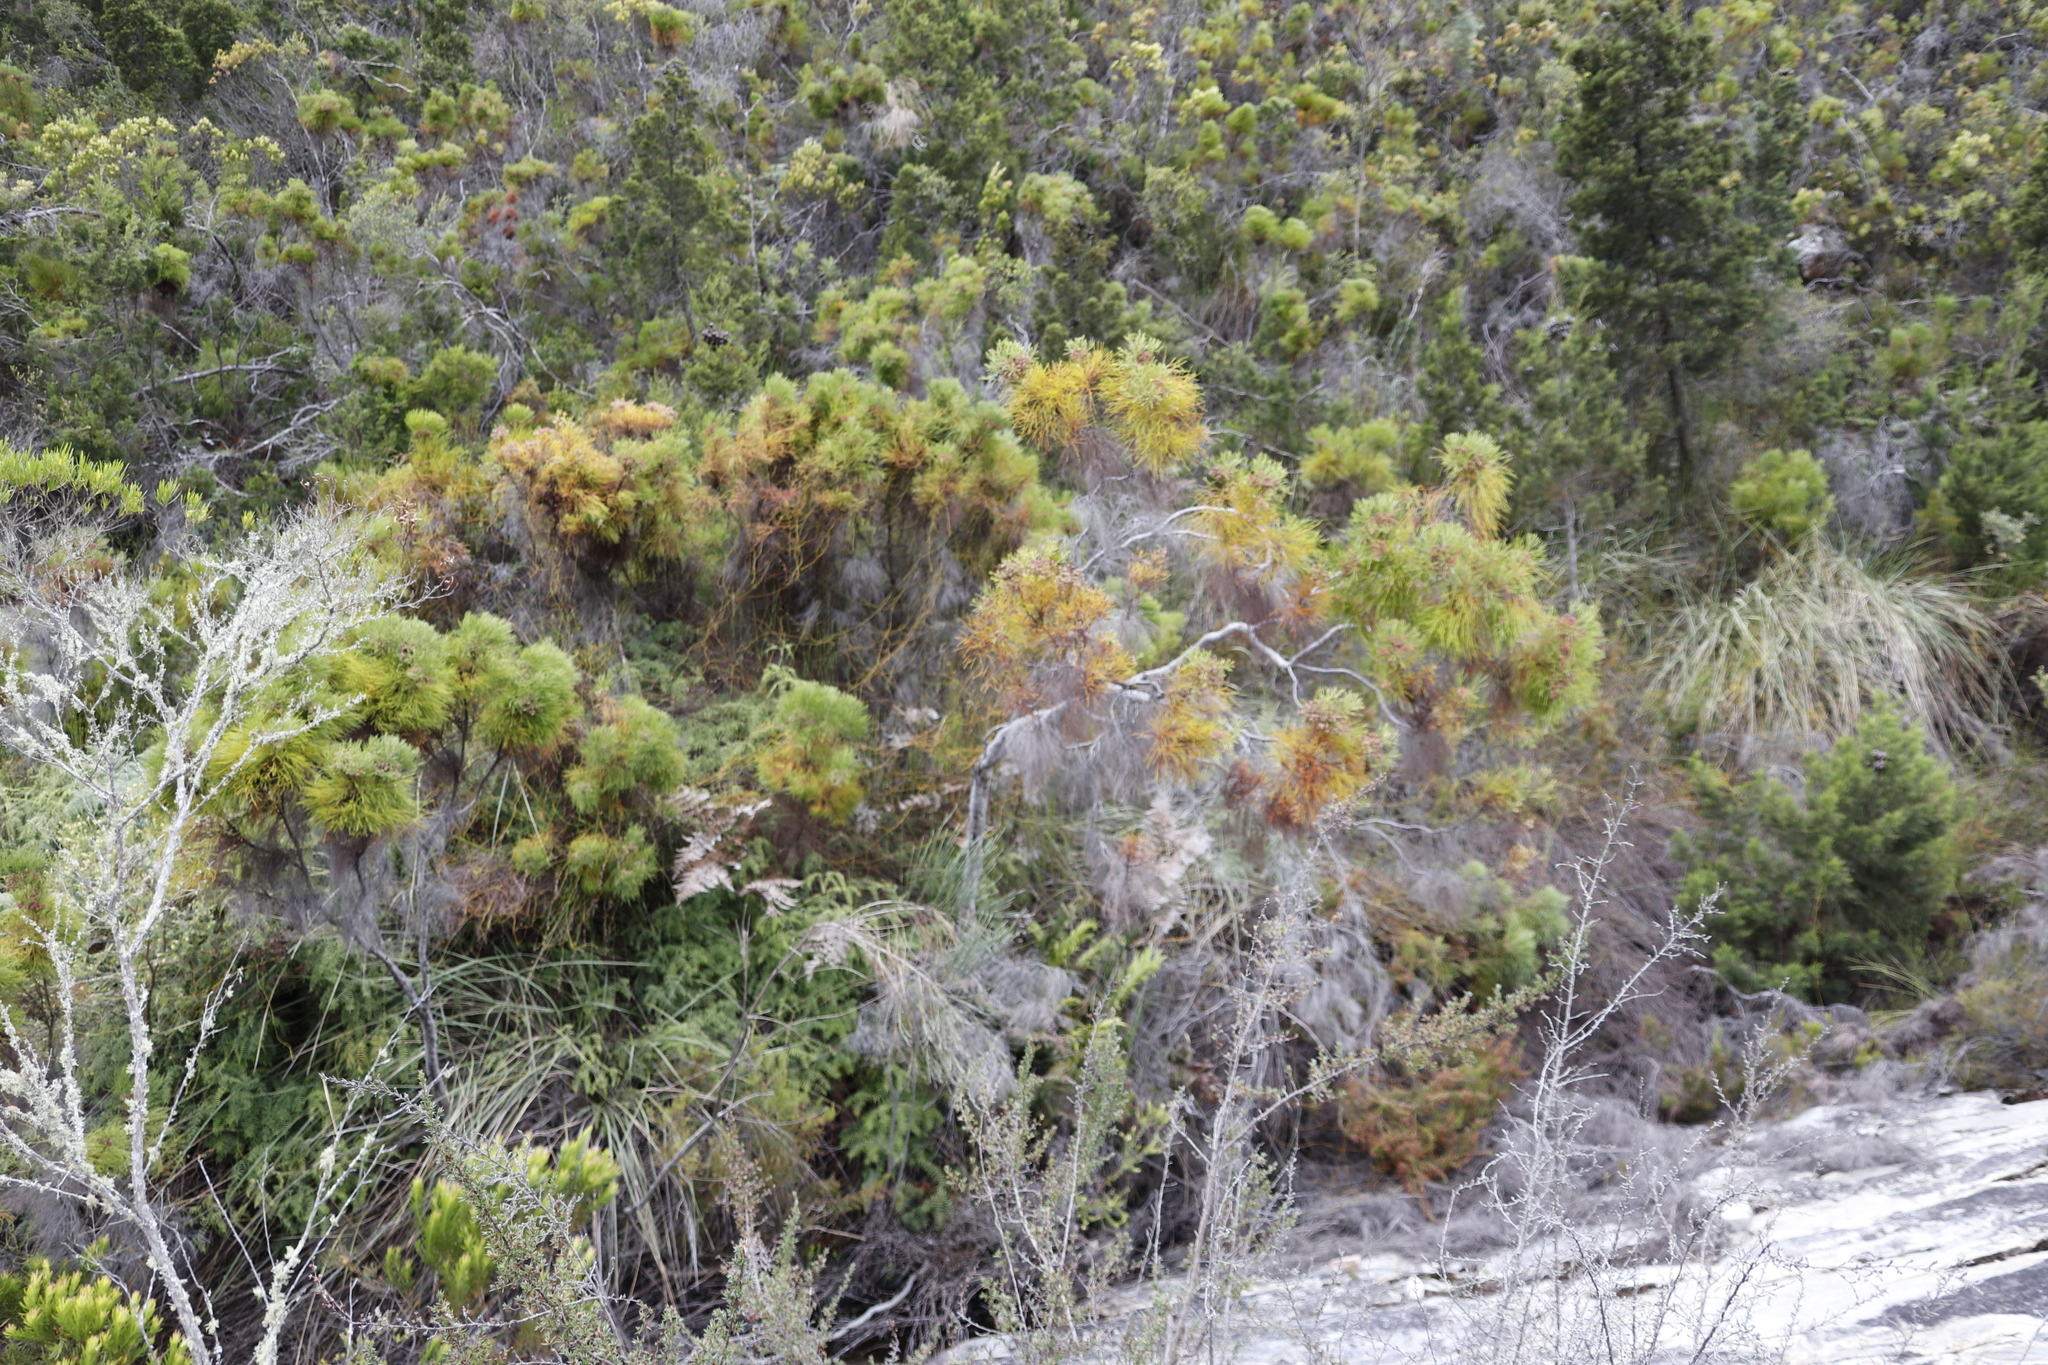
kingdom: Plantae
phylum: Tracheophyta
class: Magnoliopsida
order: Bruniales
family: Bruniaceae
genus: Berzelia
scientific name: Berzelia lanuginosa
